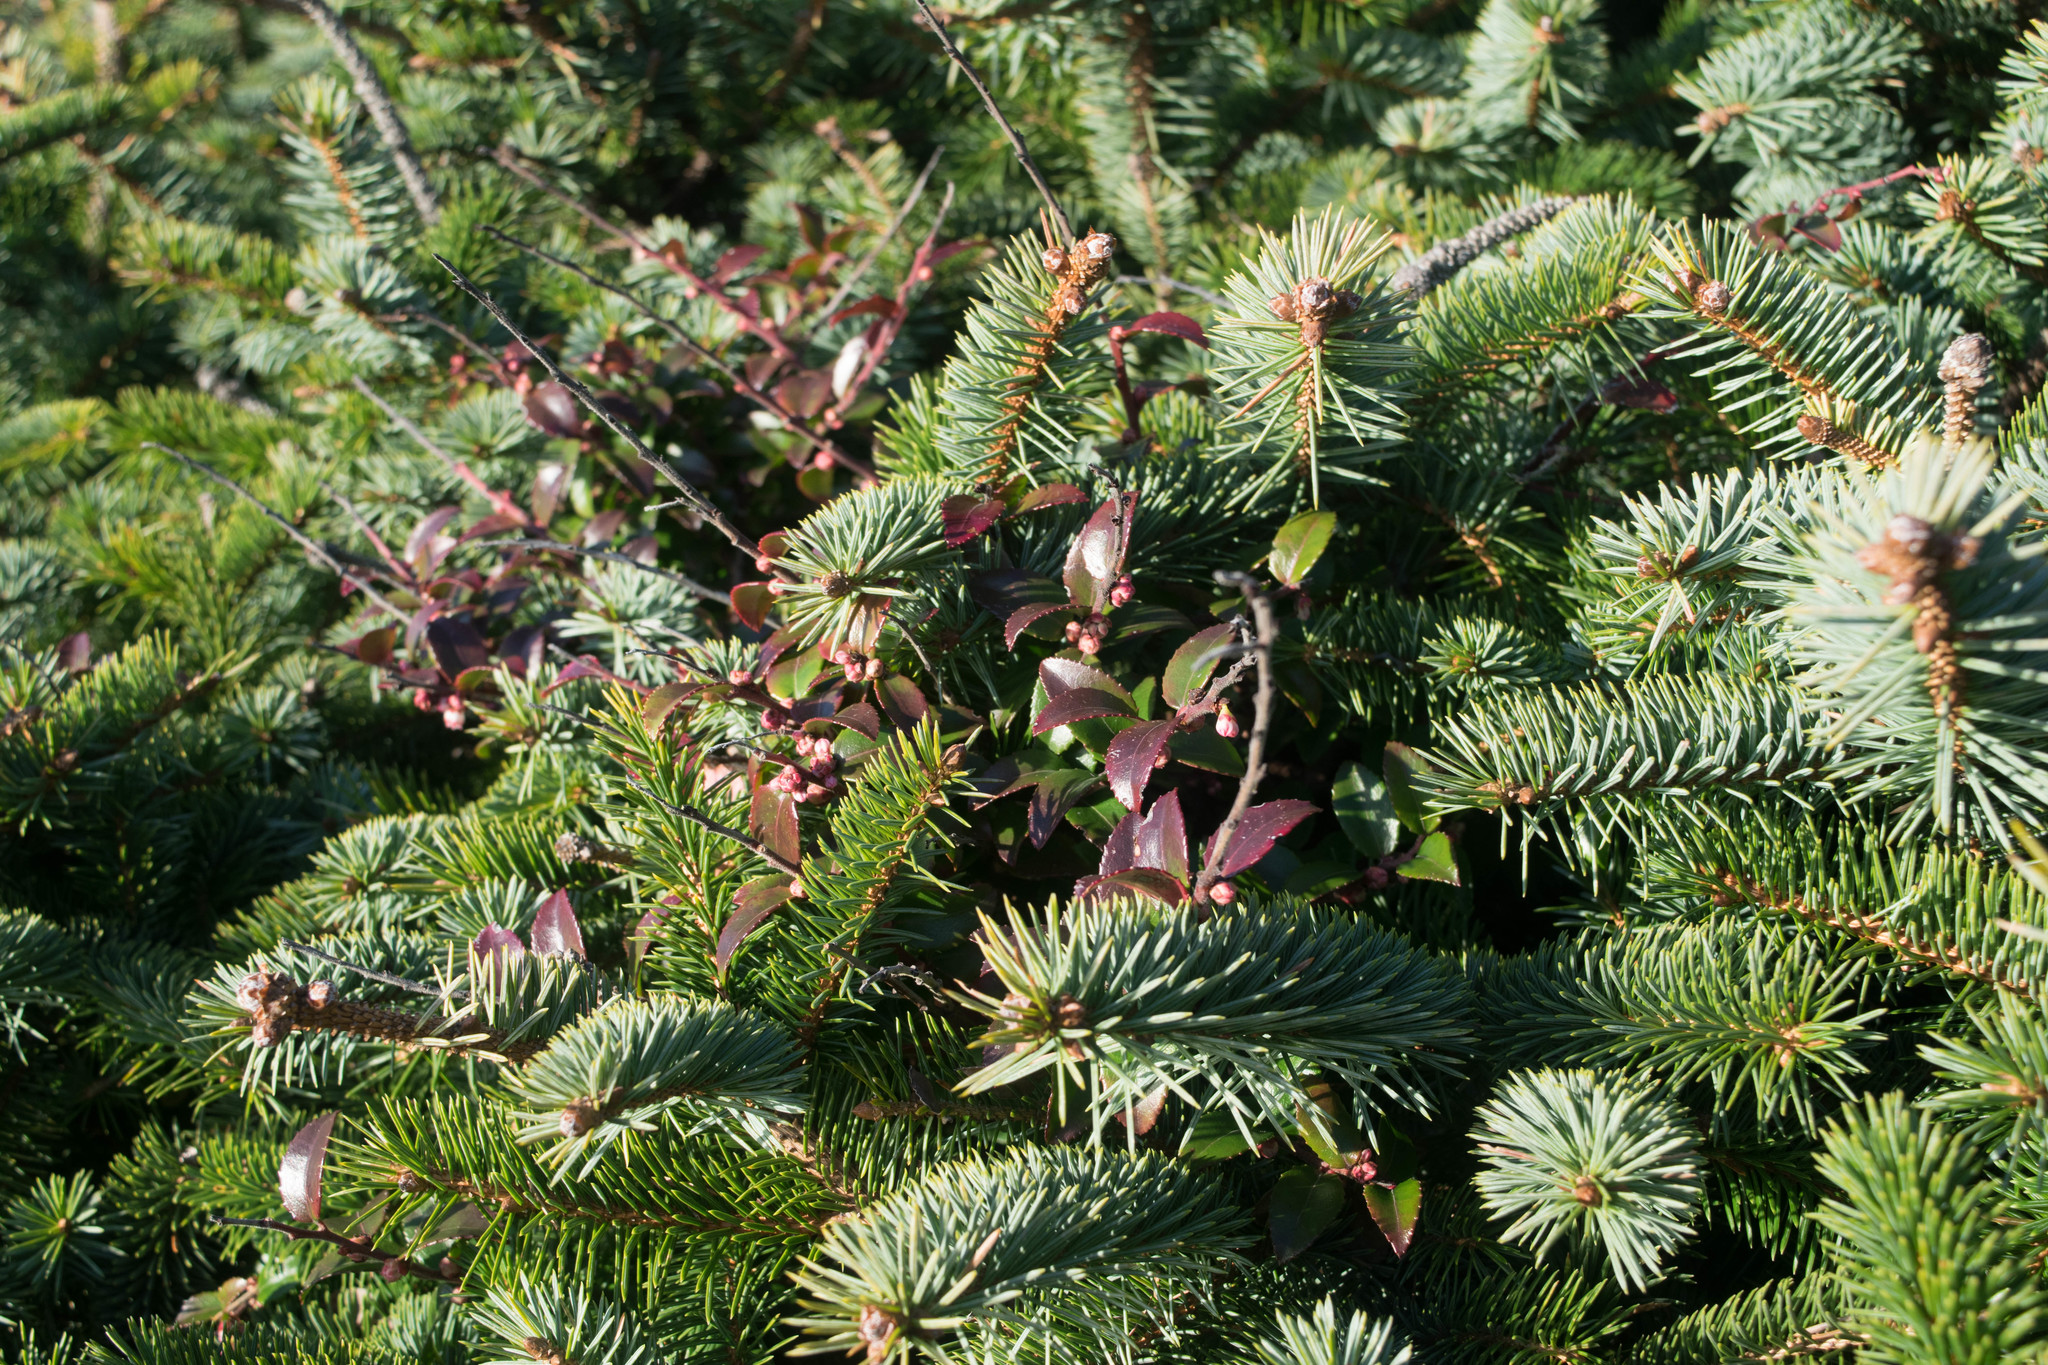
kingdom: Plantae
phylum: Tracheophyta
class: Magnoliopsida
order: Ericales
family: Ericaceae
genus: Vaccinium
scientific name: Vaccinium ovatum
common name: California-huckleberry
